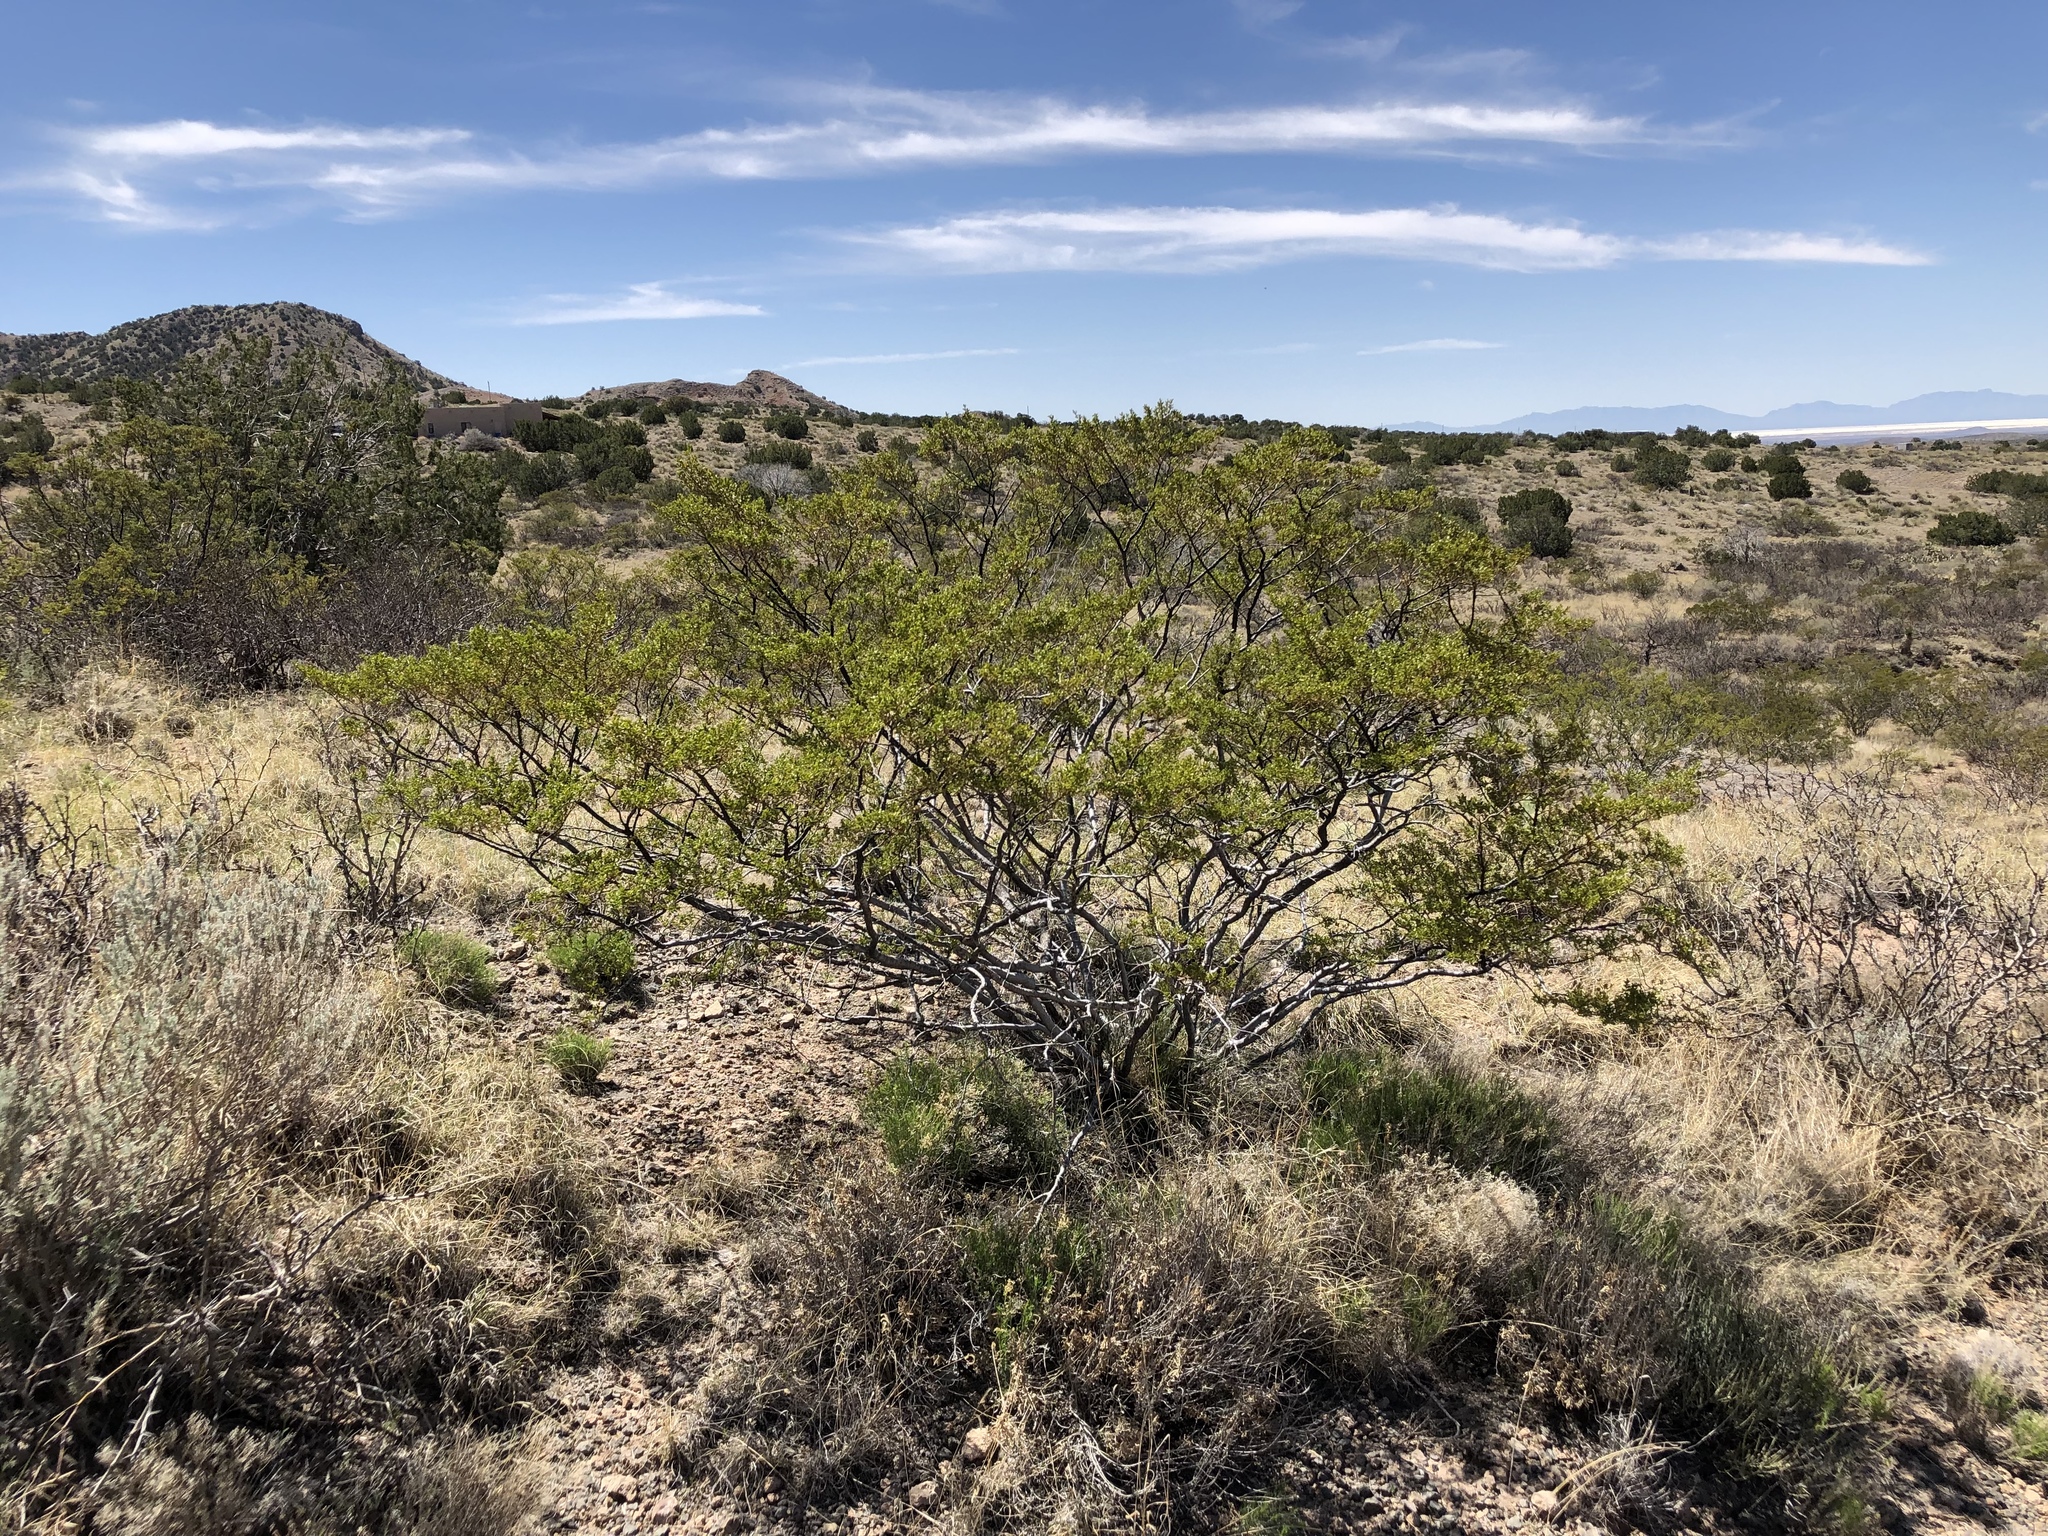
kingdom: Plantae
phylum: Tracheophyta
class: Magnoliopsida
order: Zygophyllales
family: Zygophyllaceae
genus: Larrea
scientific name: Larrea tridentata
